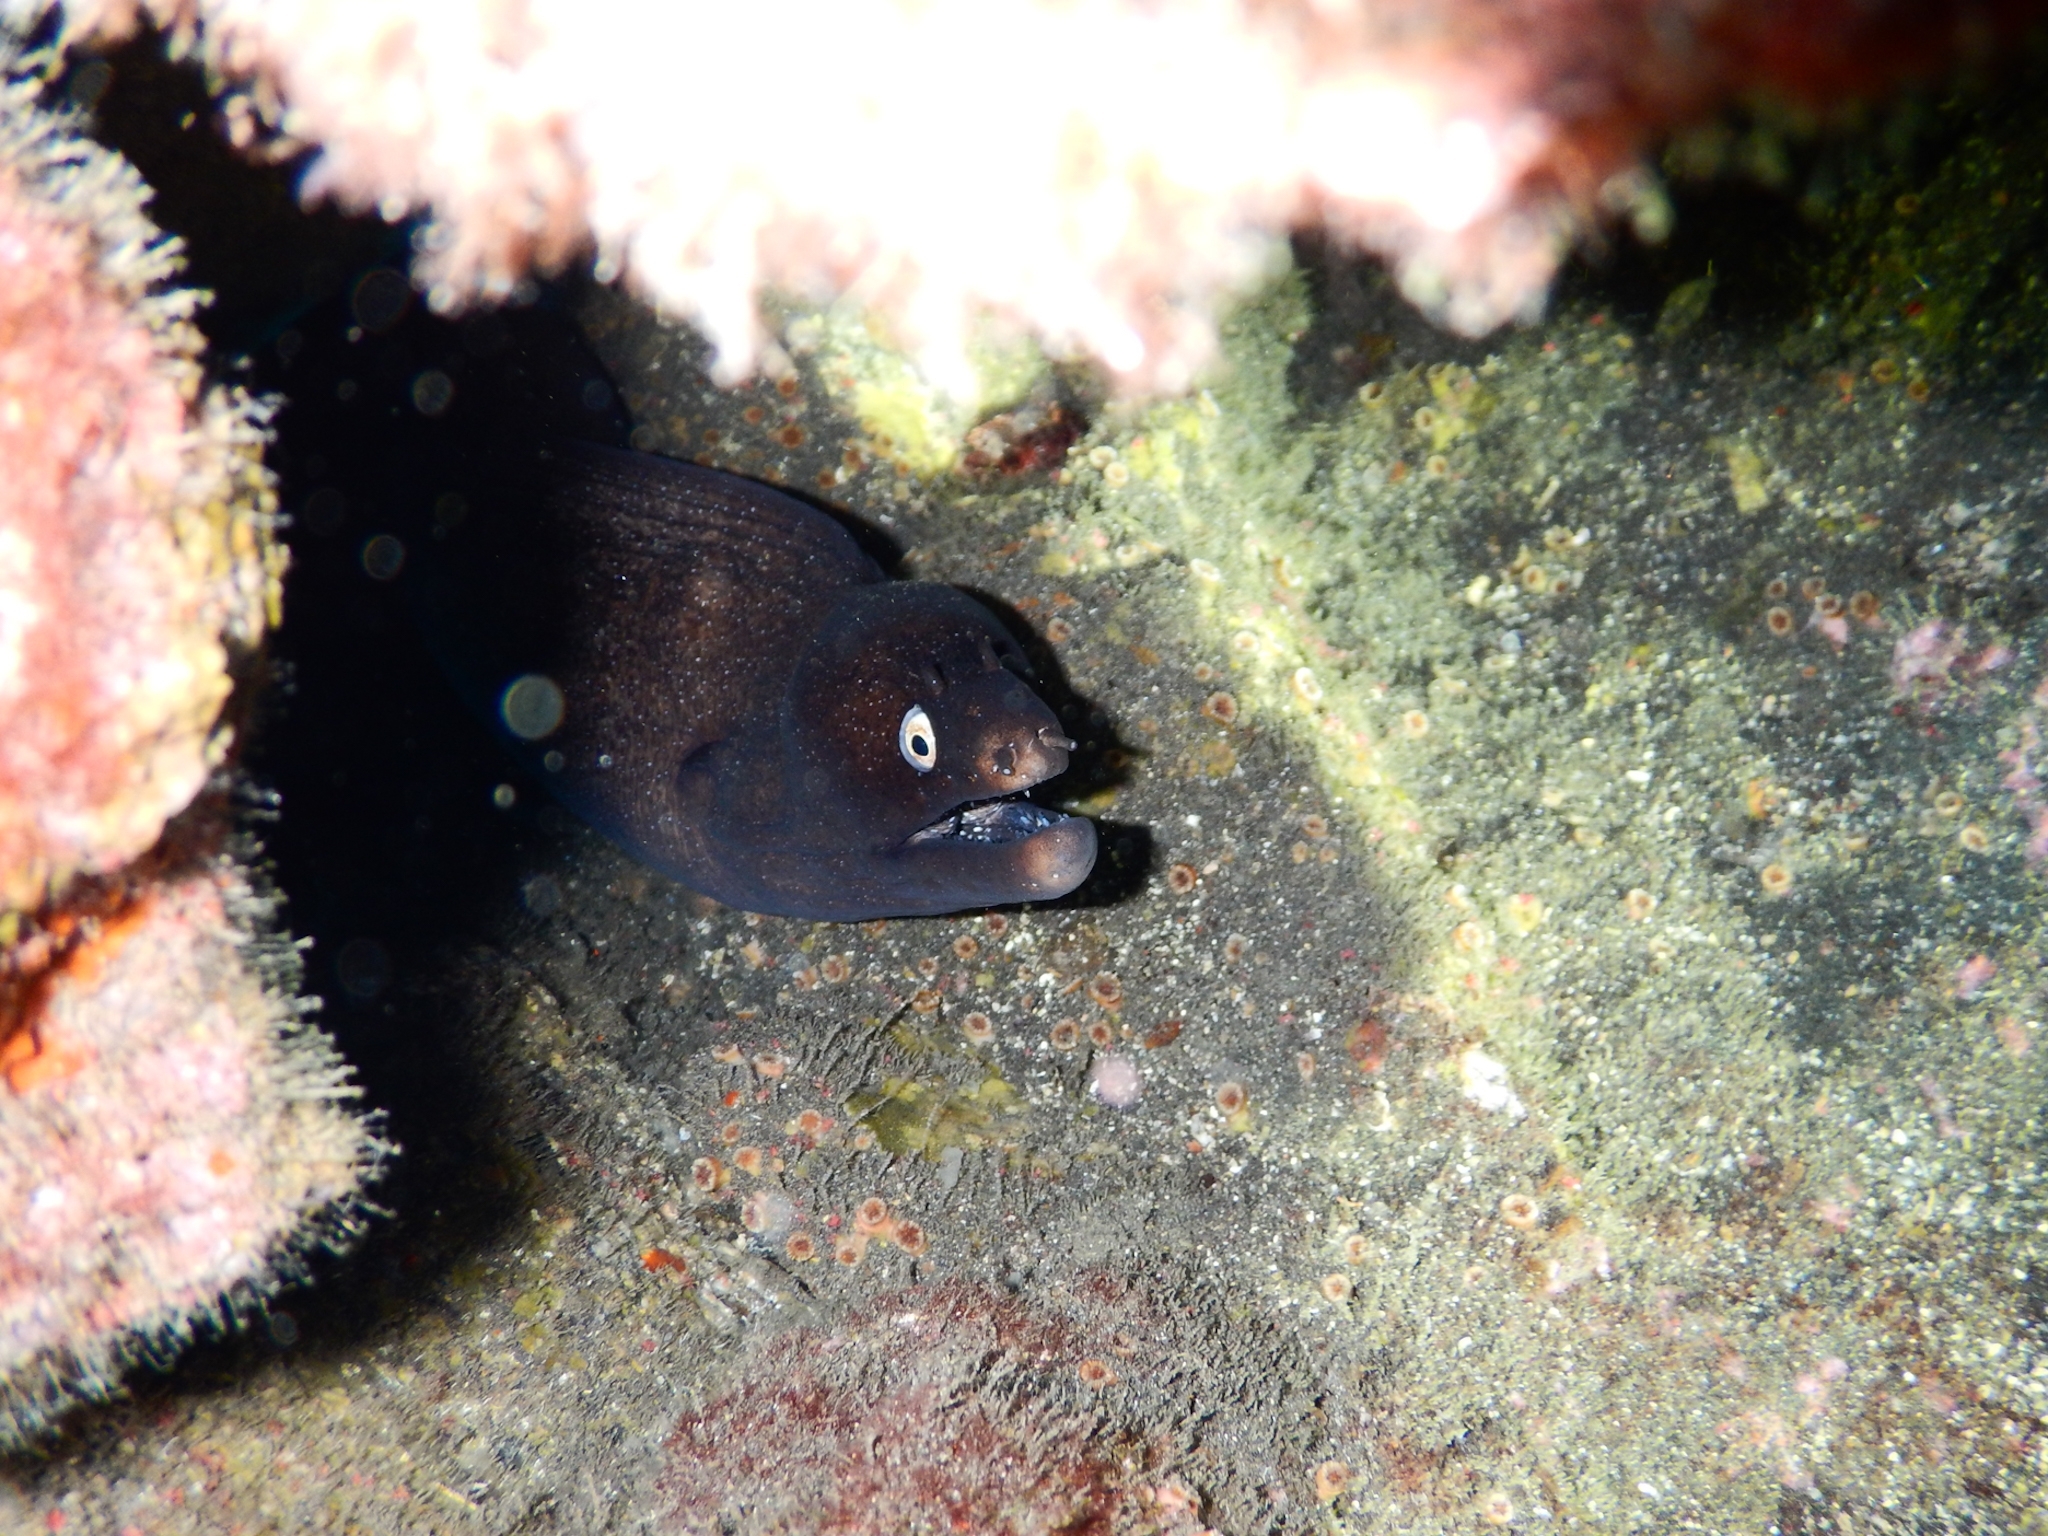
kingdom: Animalia
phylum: Chordata
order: Anguilliformes
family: Muraenidae
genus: Muraena
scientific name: Muraena augusti
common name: Mediterranean moray
